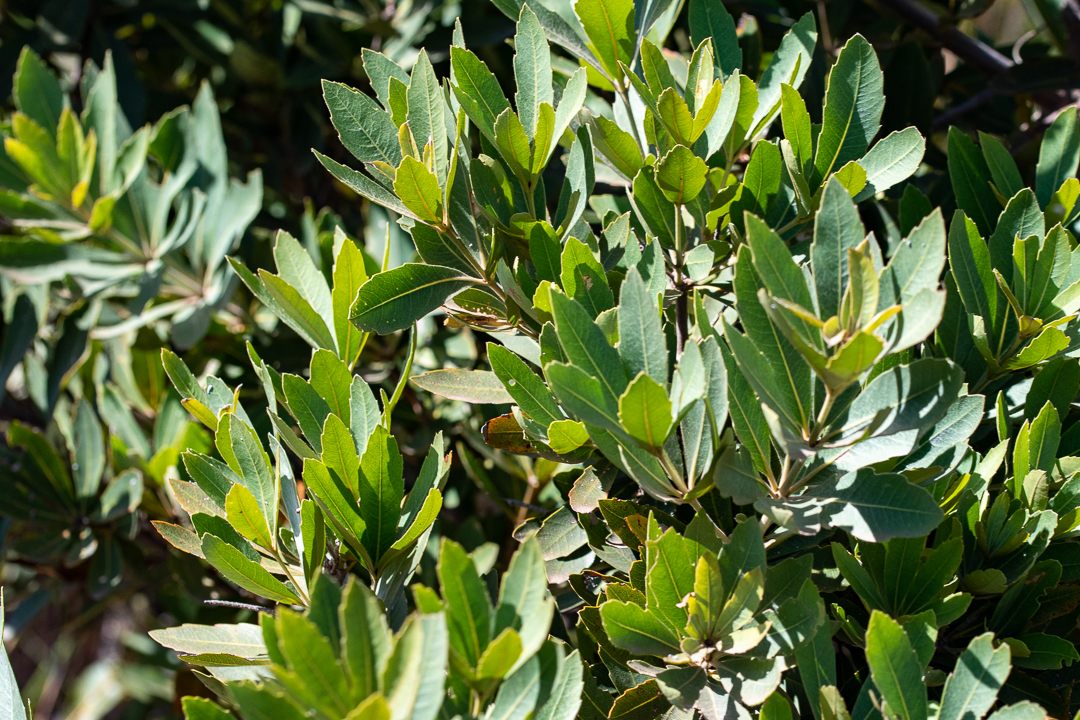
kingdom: Plantae
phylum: Tracheophyta
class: Magnoliopsida
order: Proteales
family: Proteaceae
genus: Brabejum
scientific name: Brabejum stellatifolium
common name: Wild almond
